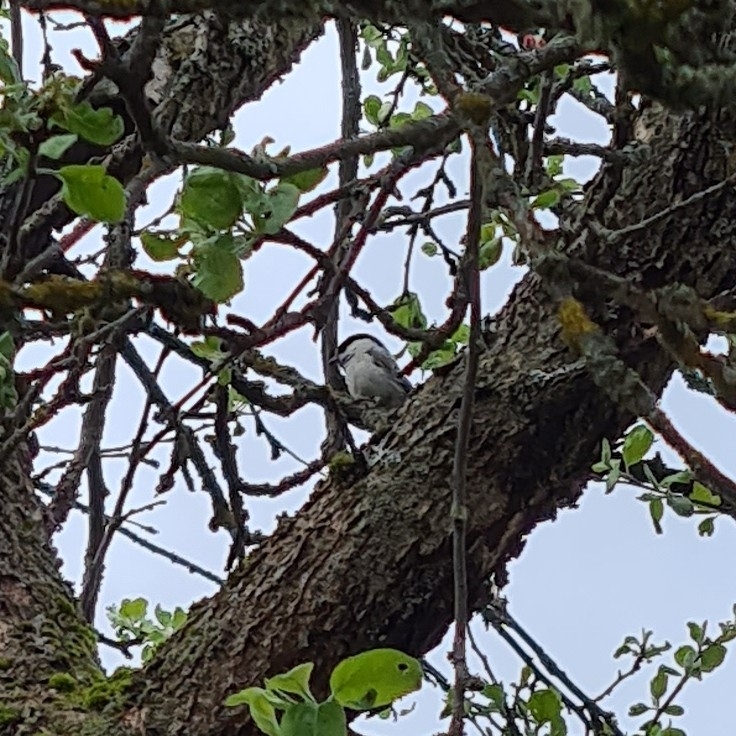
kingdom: Animalia
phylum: Chordata
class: Aves
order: Passeriformes
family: Paridae
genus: Poecile
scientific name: Poecile montanus
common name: Willow tit
